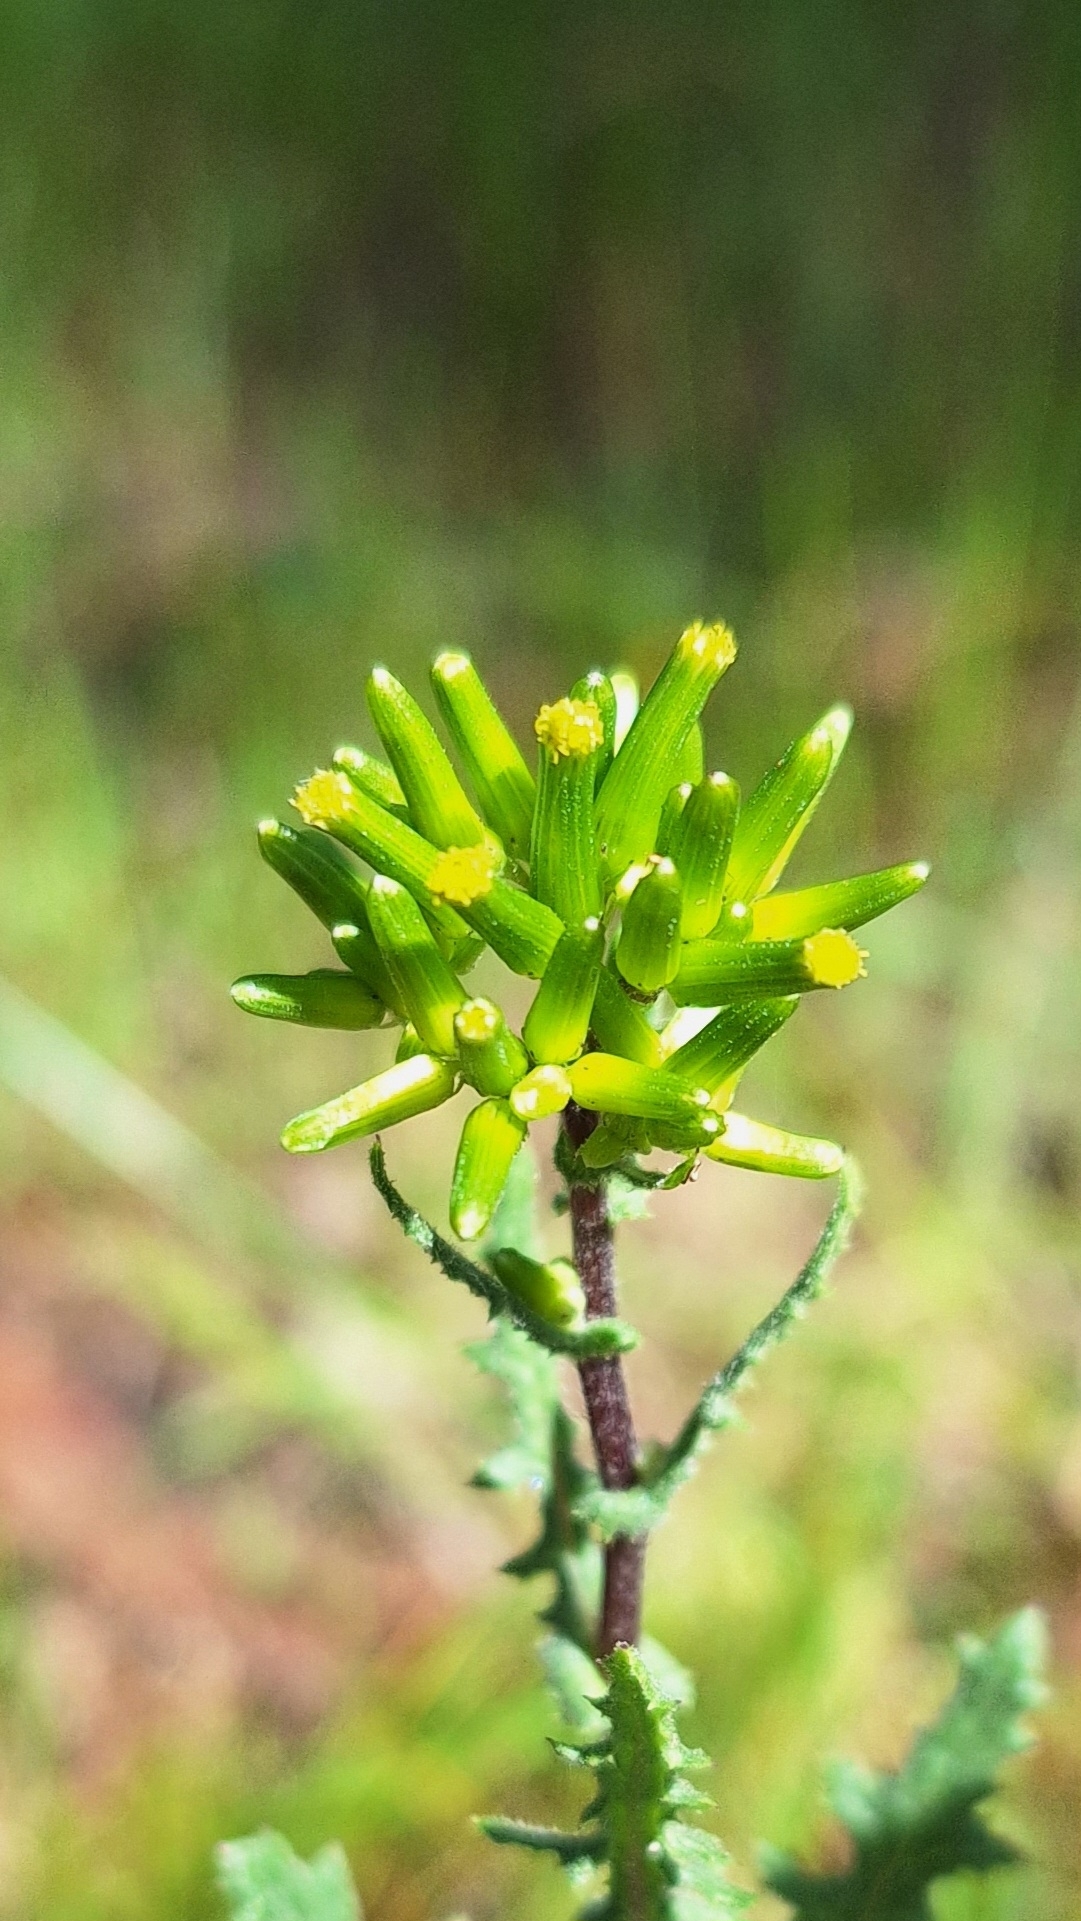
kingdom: Plantae
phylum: Tracheophyta
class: Magnoliopsida
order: Asterales
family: Asteraceae
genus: Senecio
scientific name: Senecio picridioides
